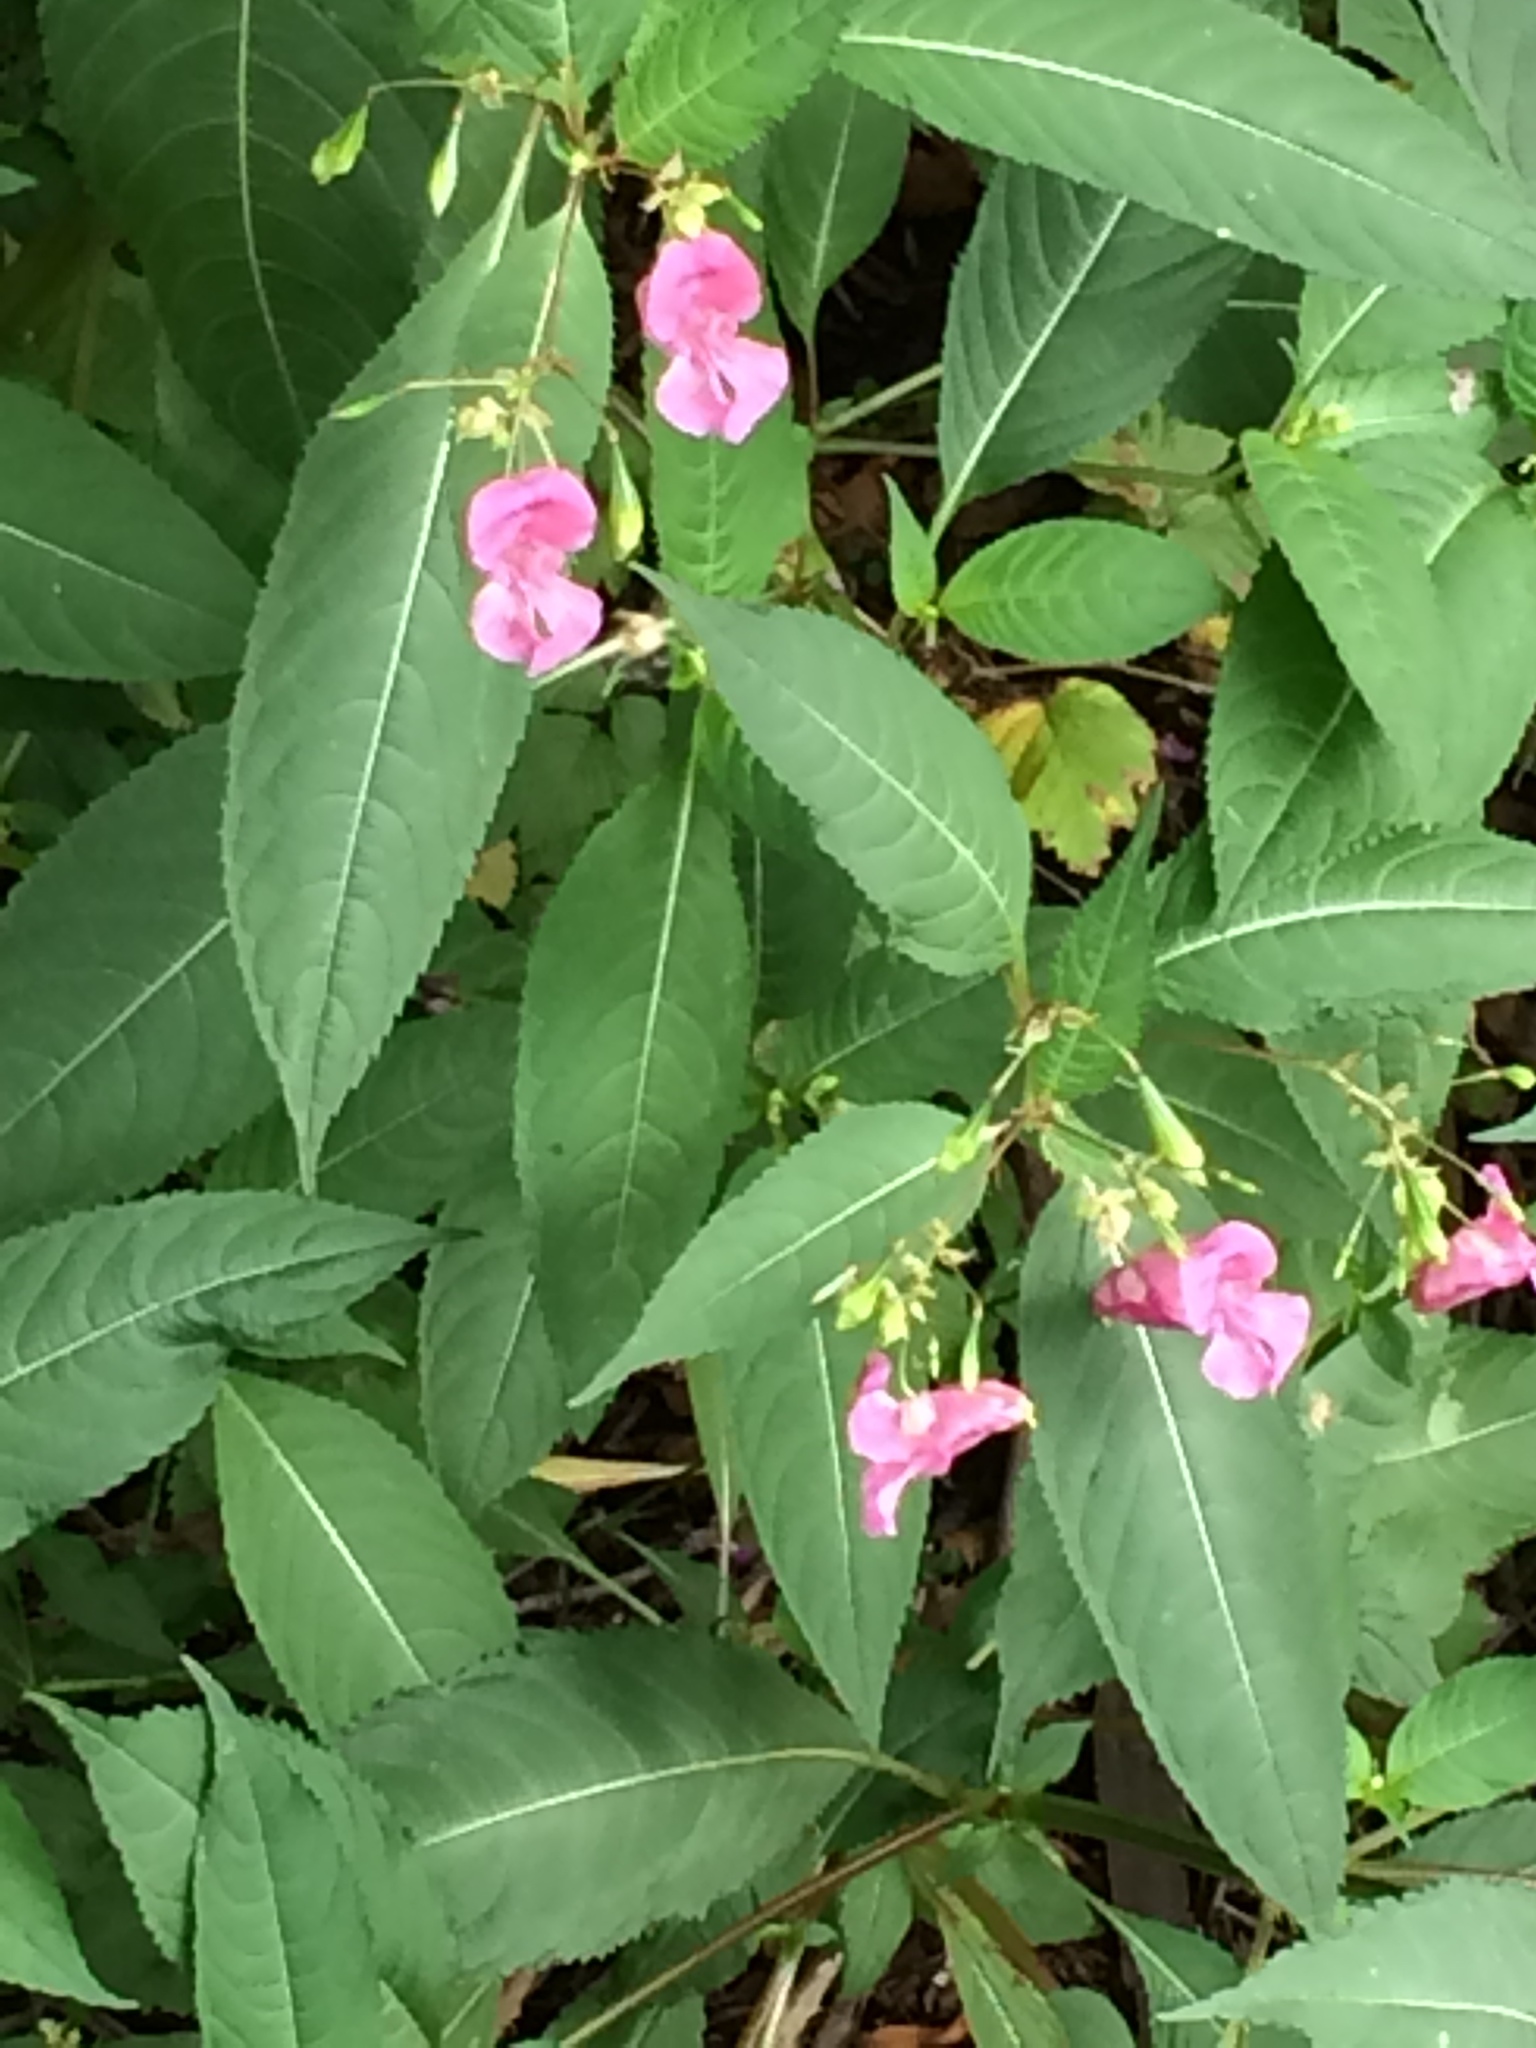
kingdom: Plantae
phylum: Tracheophyta
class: Magnoliopsida
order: Ericales
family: Balsaminaceae
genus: Impatiens
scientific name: Impatiens glandulifera
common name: Himalayan balsam
